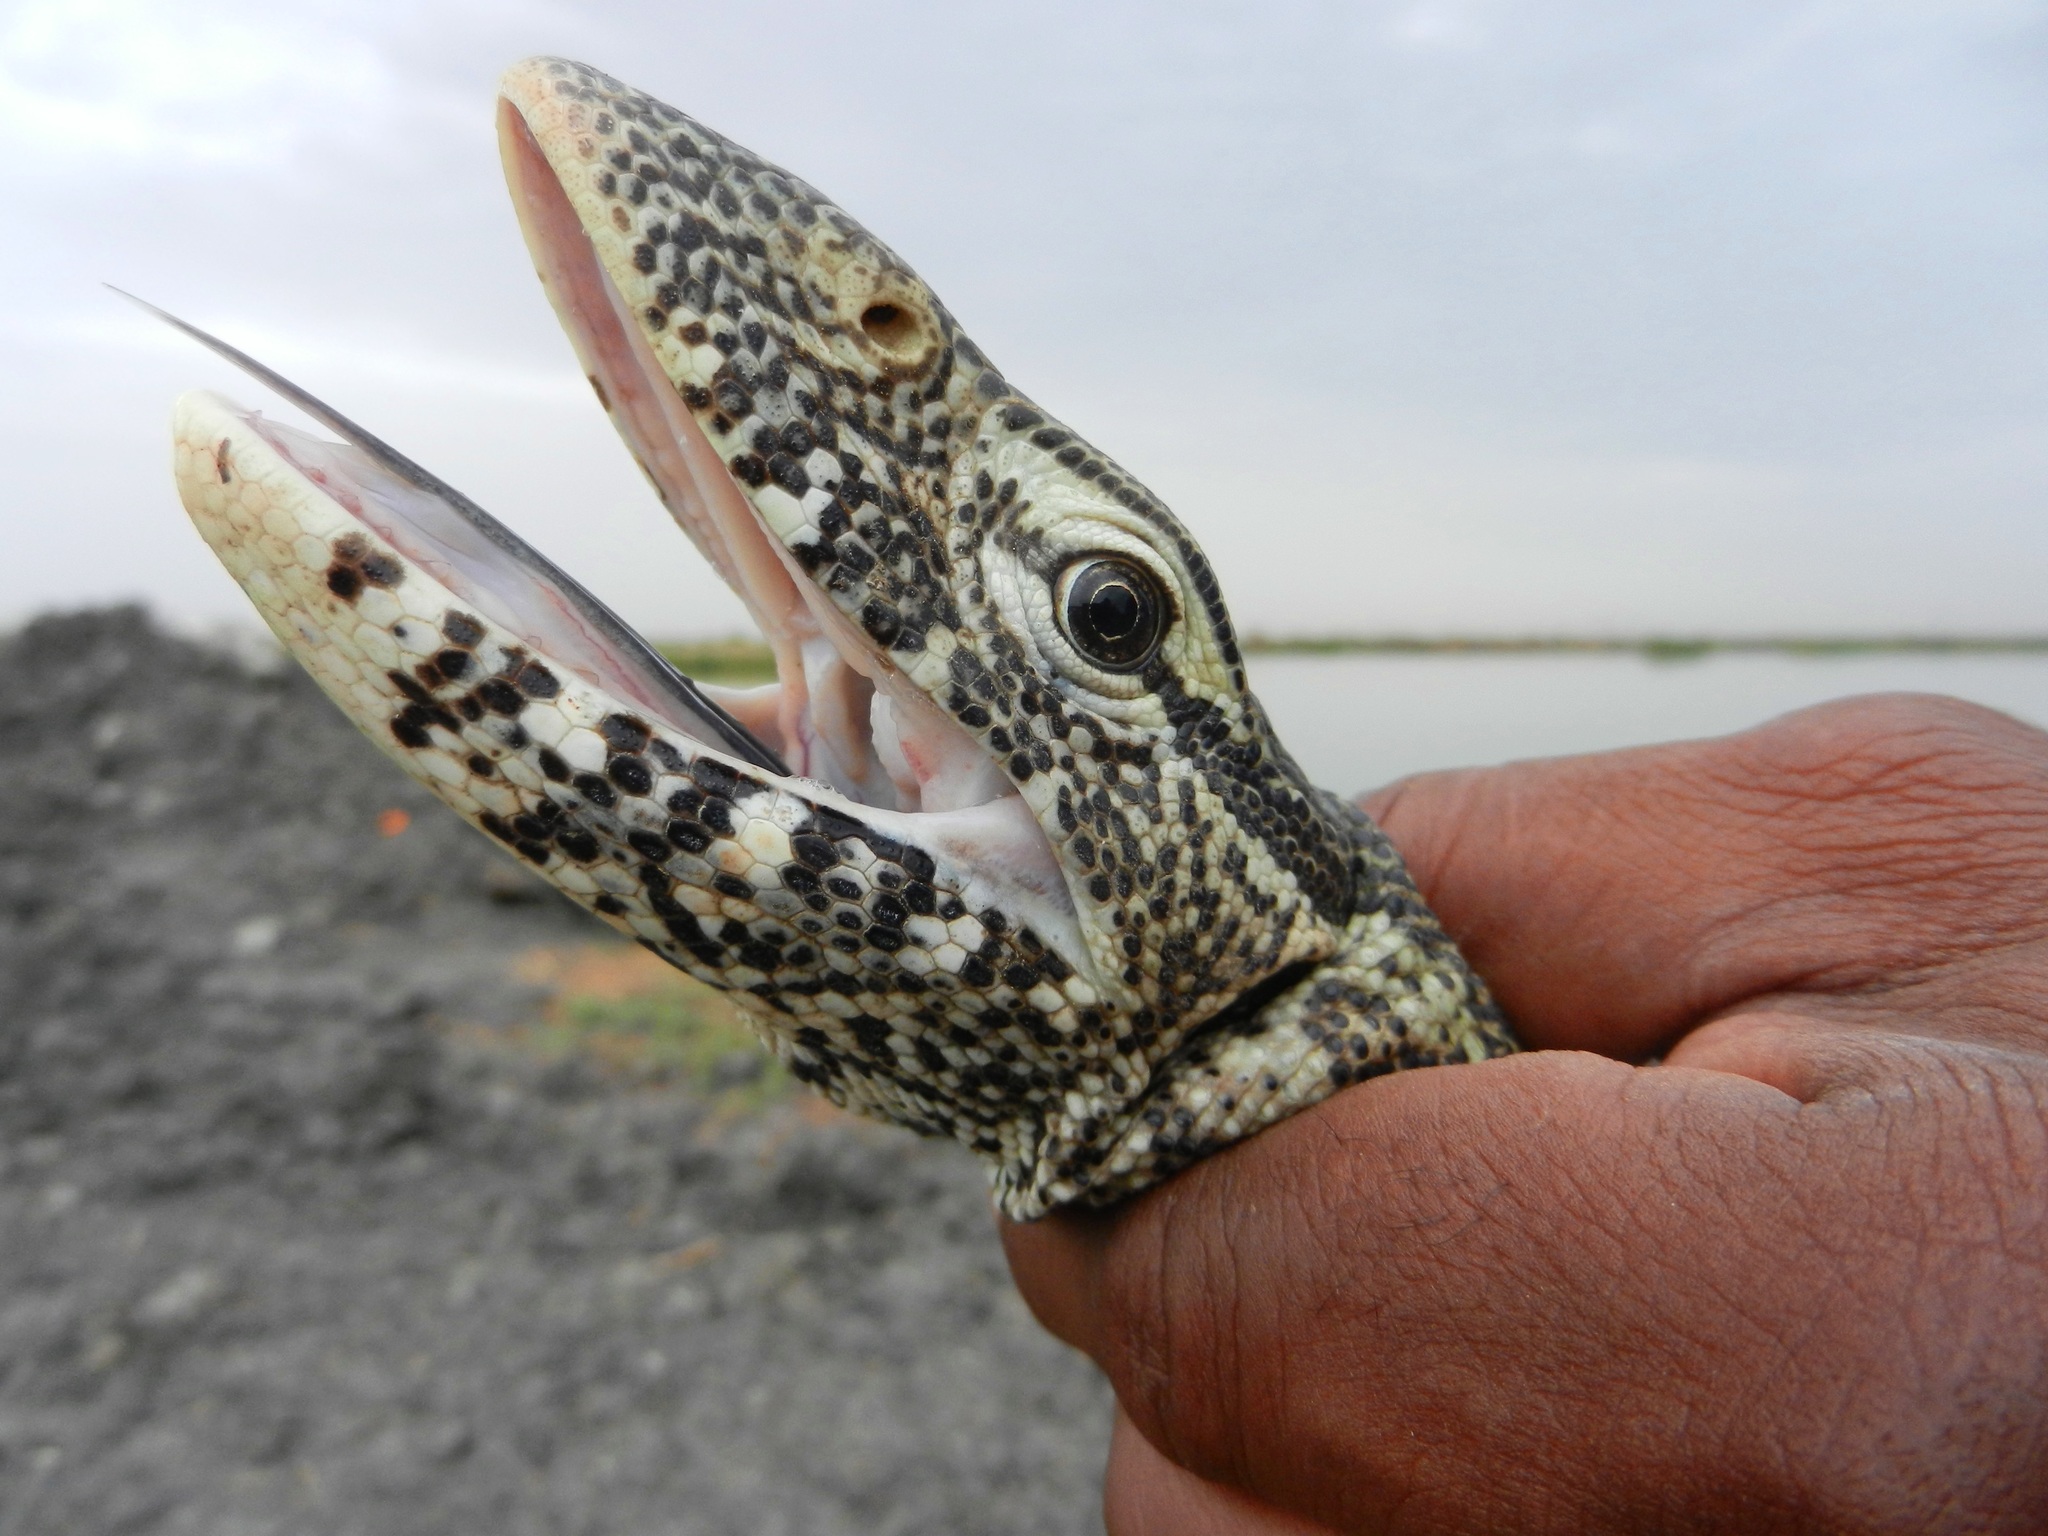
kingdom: Animalia
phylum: Chordata
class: Squamata
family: Varanidae
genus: Varanus
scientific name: Varanus niloticus
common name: Nile monitor
